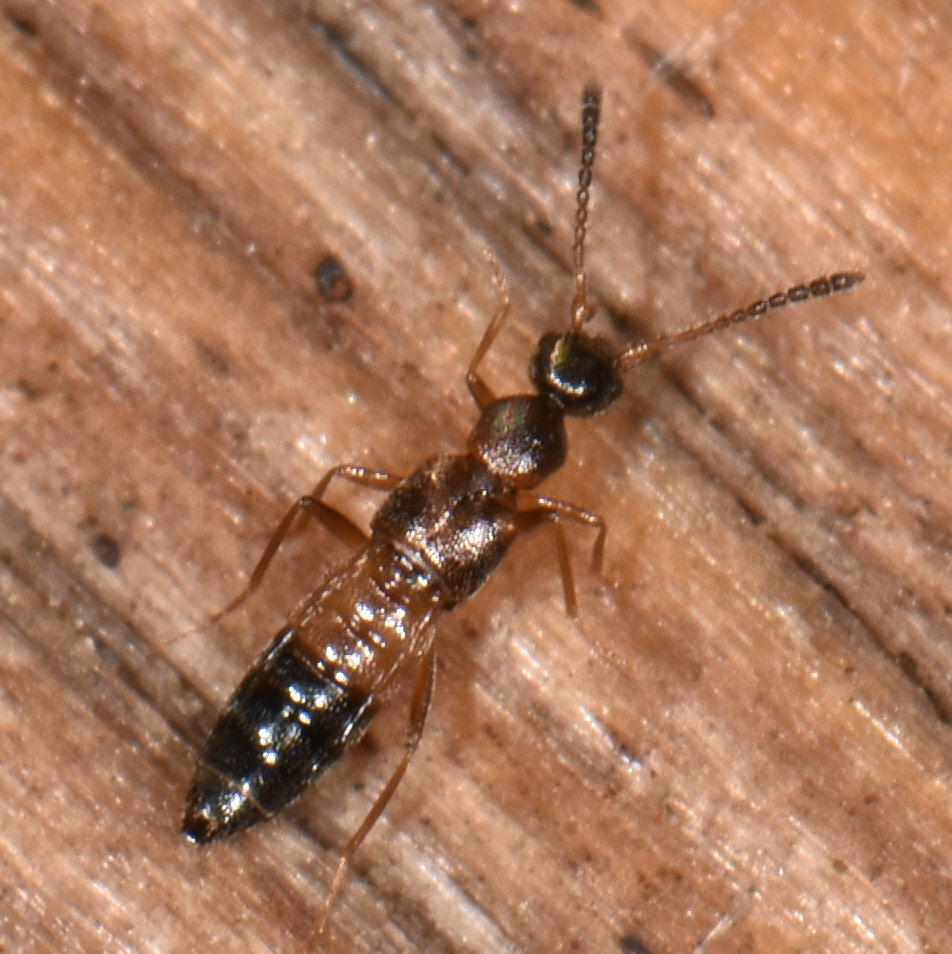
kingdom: Animalia
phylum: Arthropoda
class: Insecta
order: Coleoptera
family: Staphylinidae
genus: Meronera
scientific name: Meronera venustula
